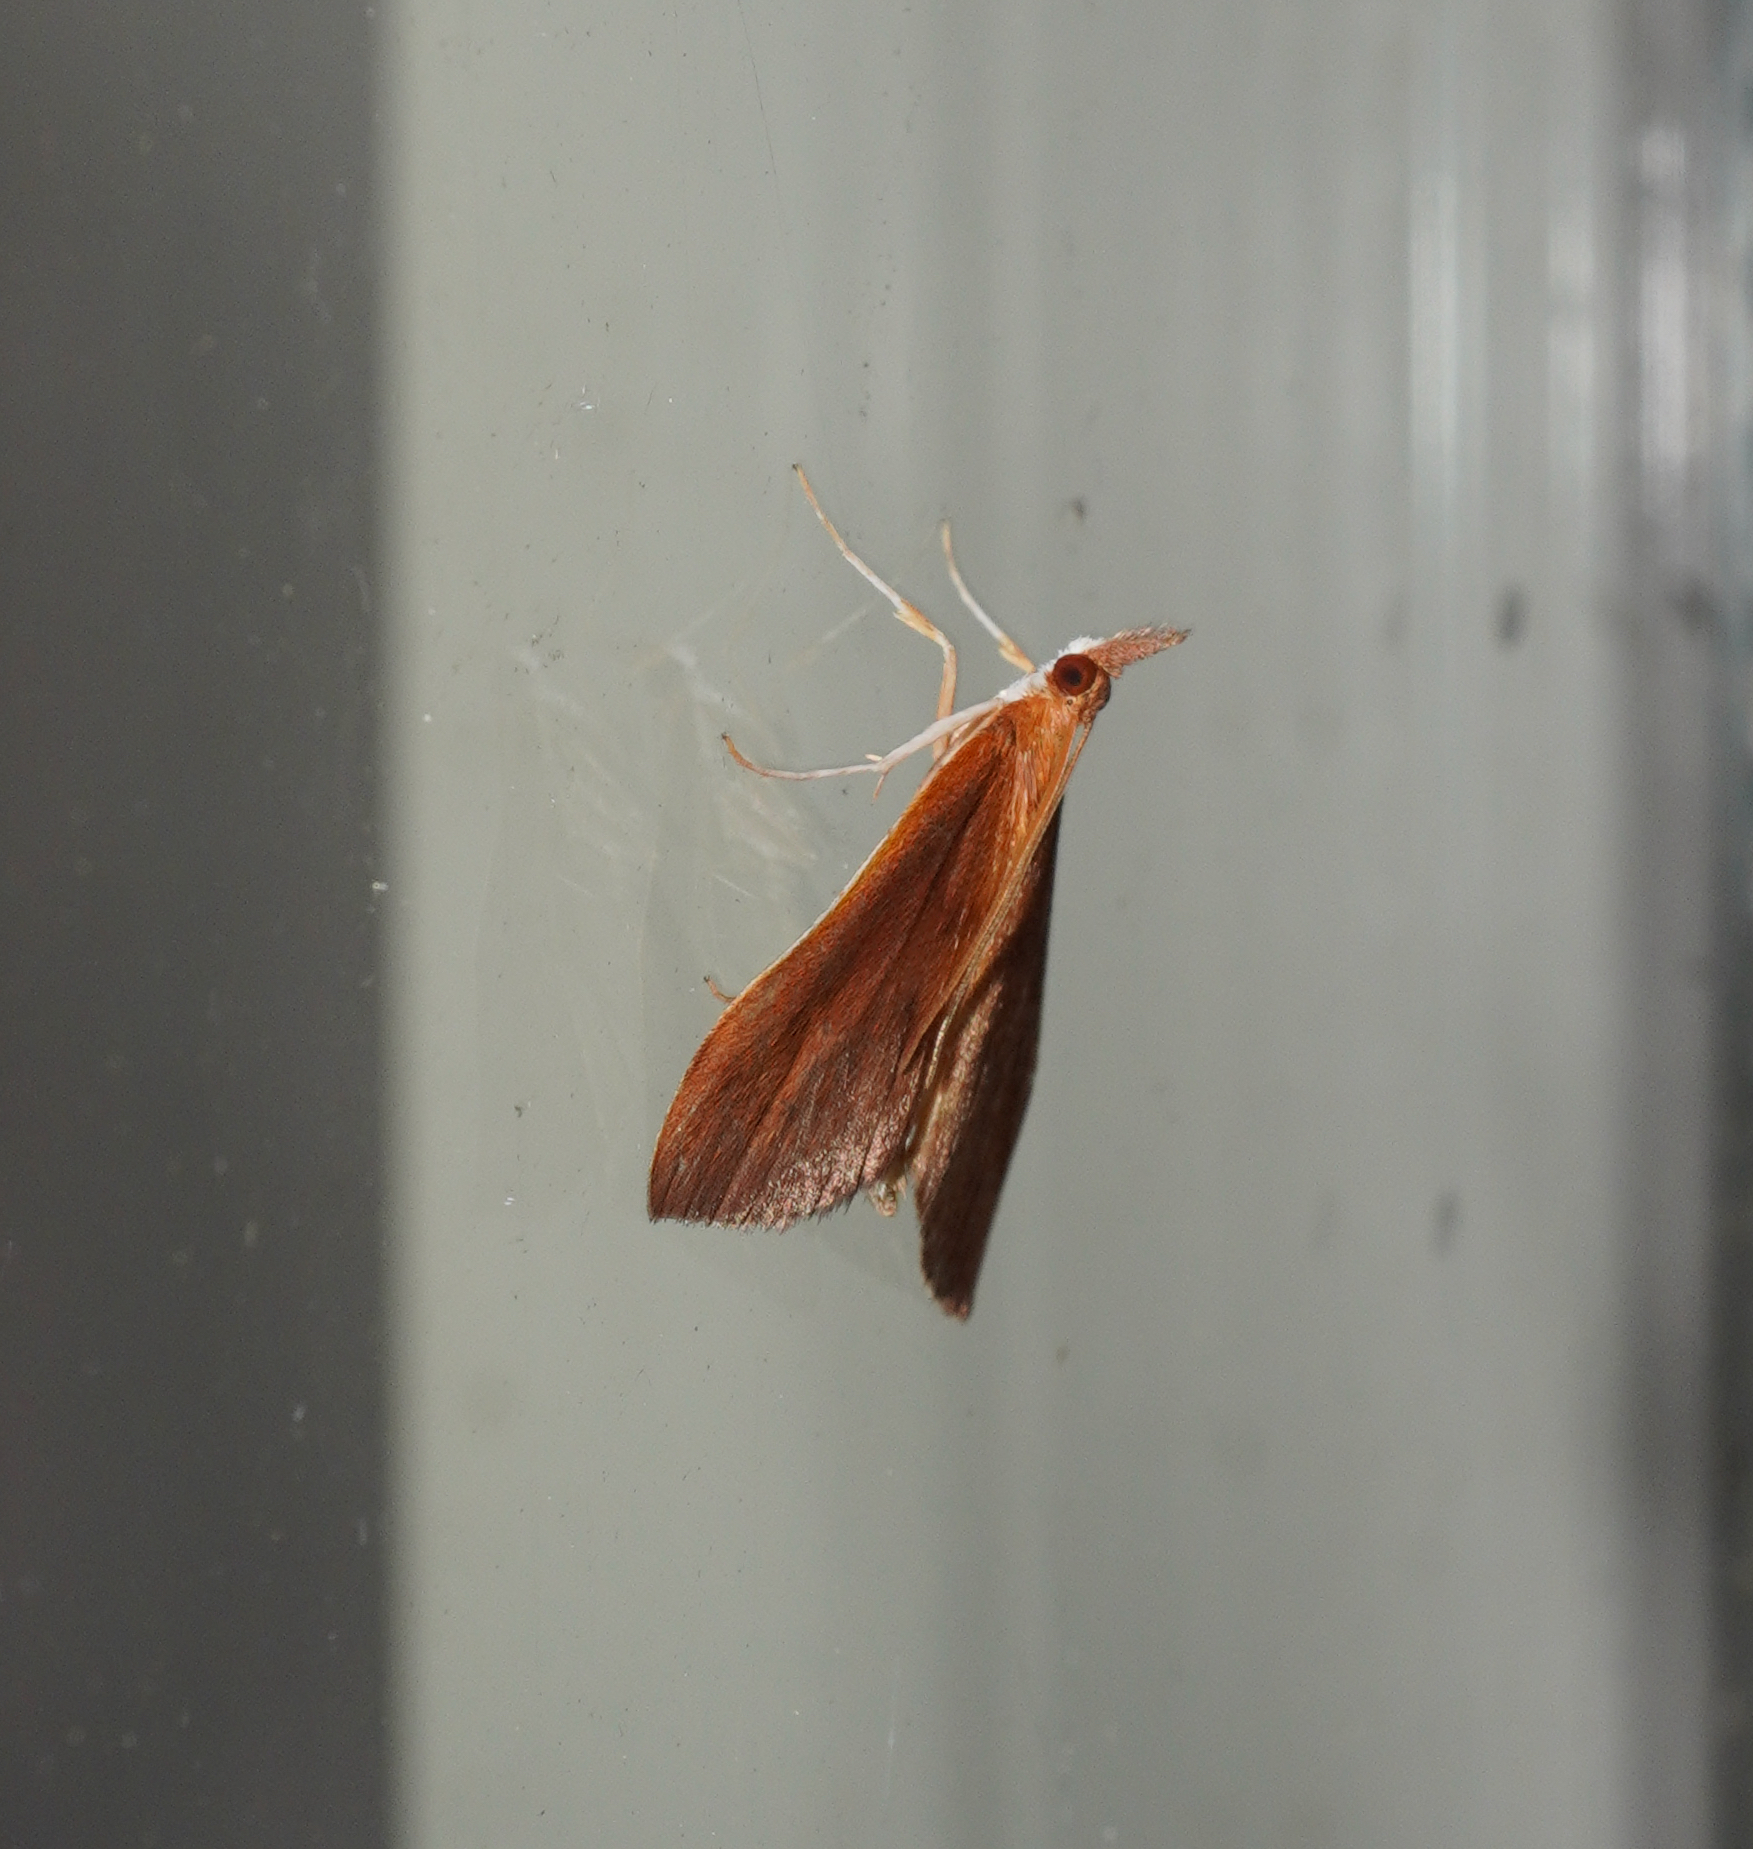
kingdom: Animalia
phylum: Arthropoda
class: Insecta
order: Lepidoptera
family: Crambidae
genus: Udea
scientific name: Udea daiclesalis
